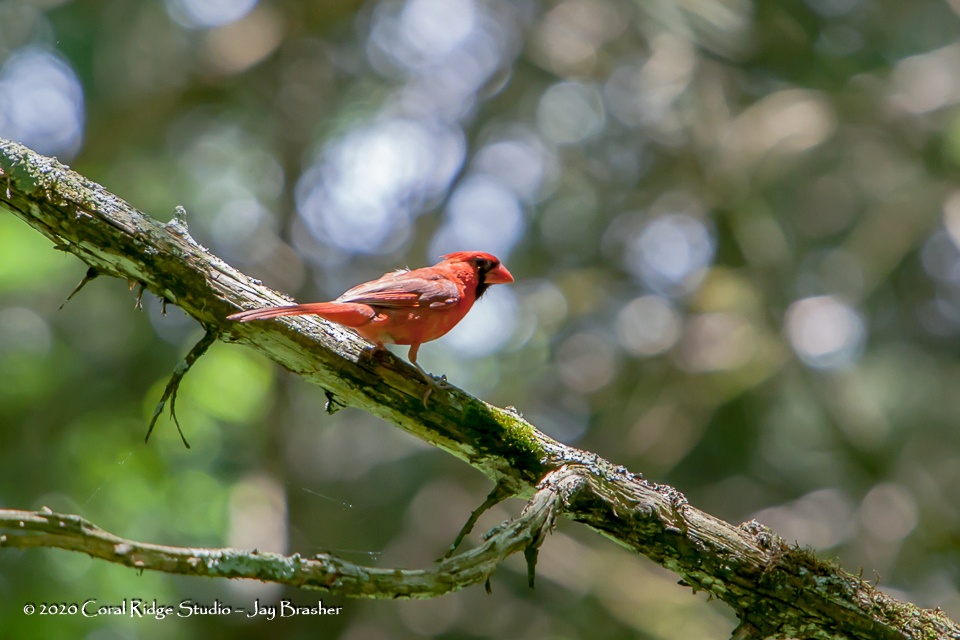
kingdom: Animalia
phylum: Chordata
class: Aves
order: Passeriformes
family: Cardinalidae
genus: Cardinalis
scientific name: Cardinalis cardinalis
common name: Northern cardinal
